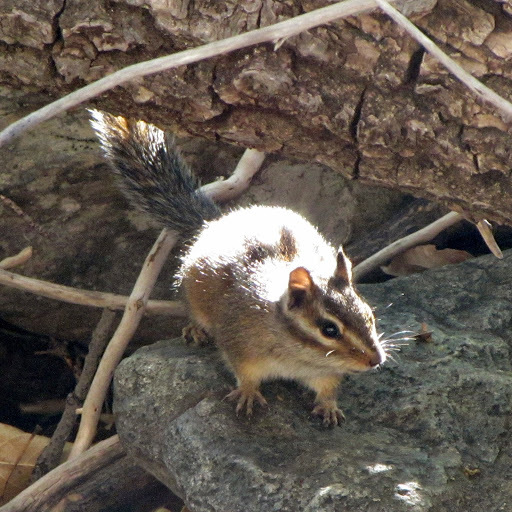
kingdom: Animalia
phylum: Chordata
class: Mammalia
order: Rodentia
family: Sciuridae
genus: Tamias
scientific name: Tamias senex
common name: Shadow chipmunk
